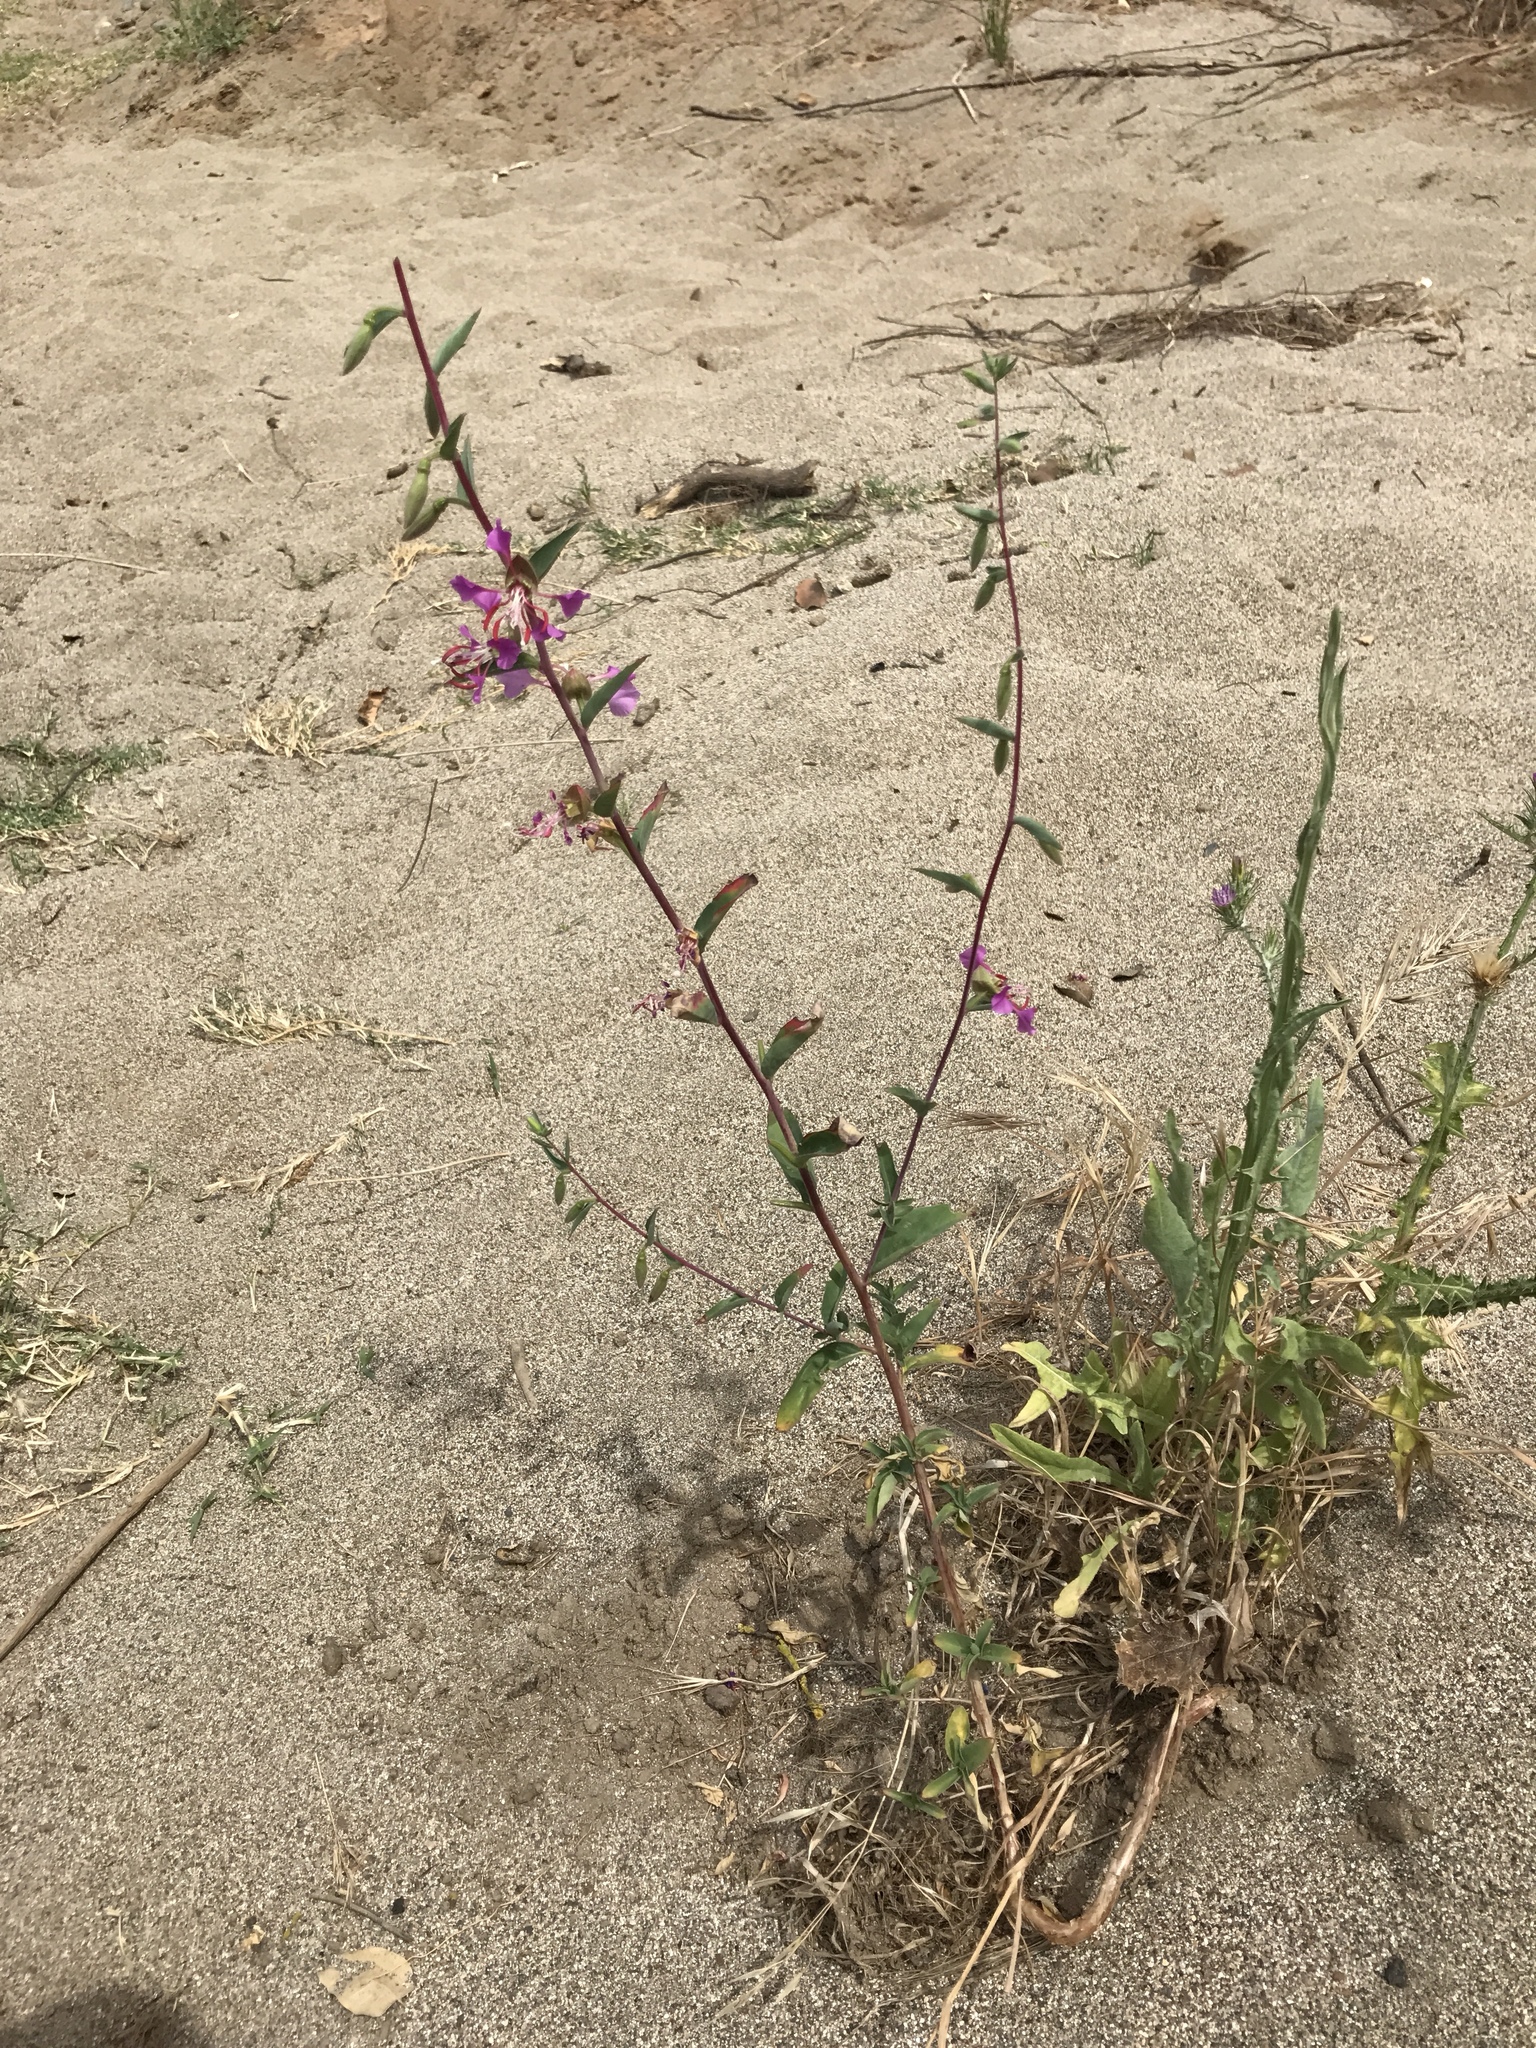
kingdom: Plantae
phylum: Tracheophyta
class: Magnoliopsida
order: Myrtales
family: Onagraceae
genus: Clarkia
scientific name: Clarkia unguiculata
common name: Clarkia
